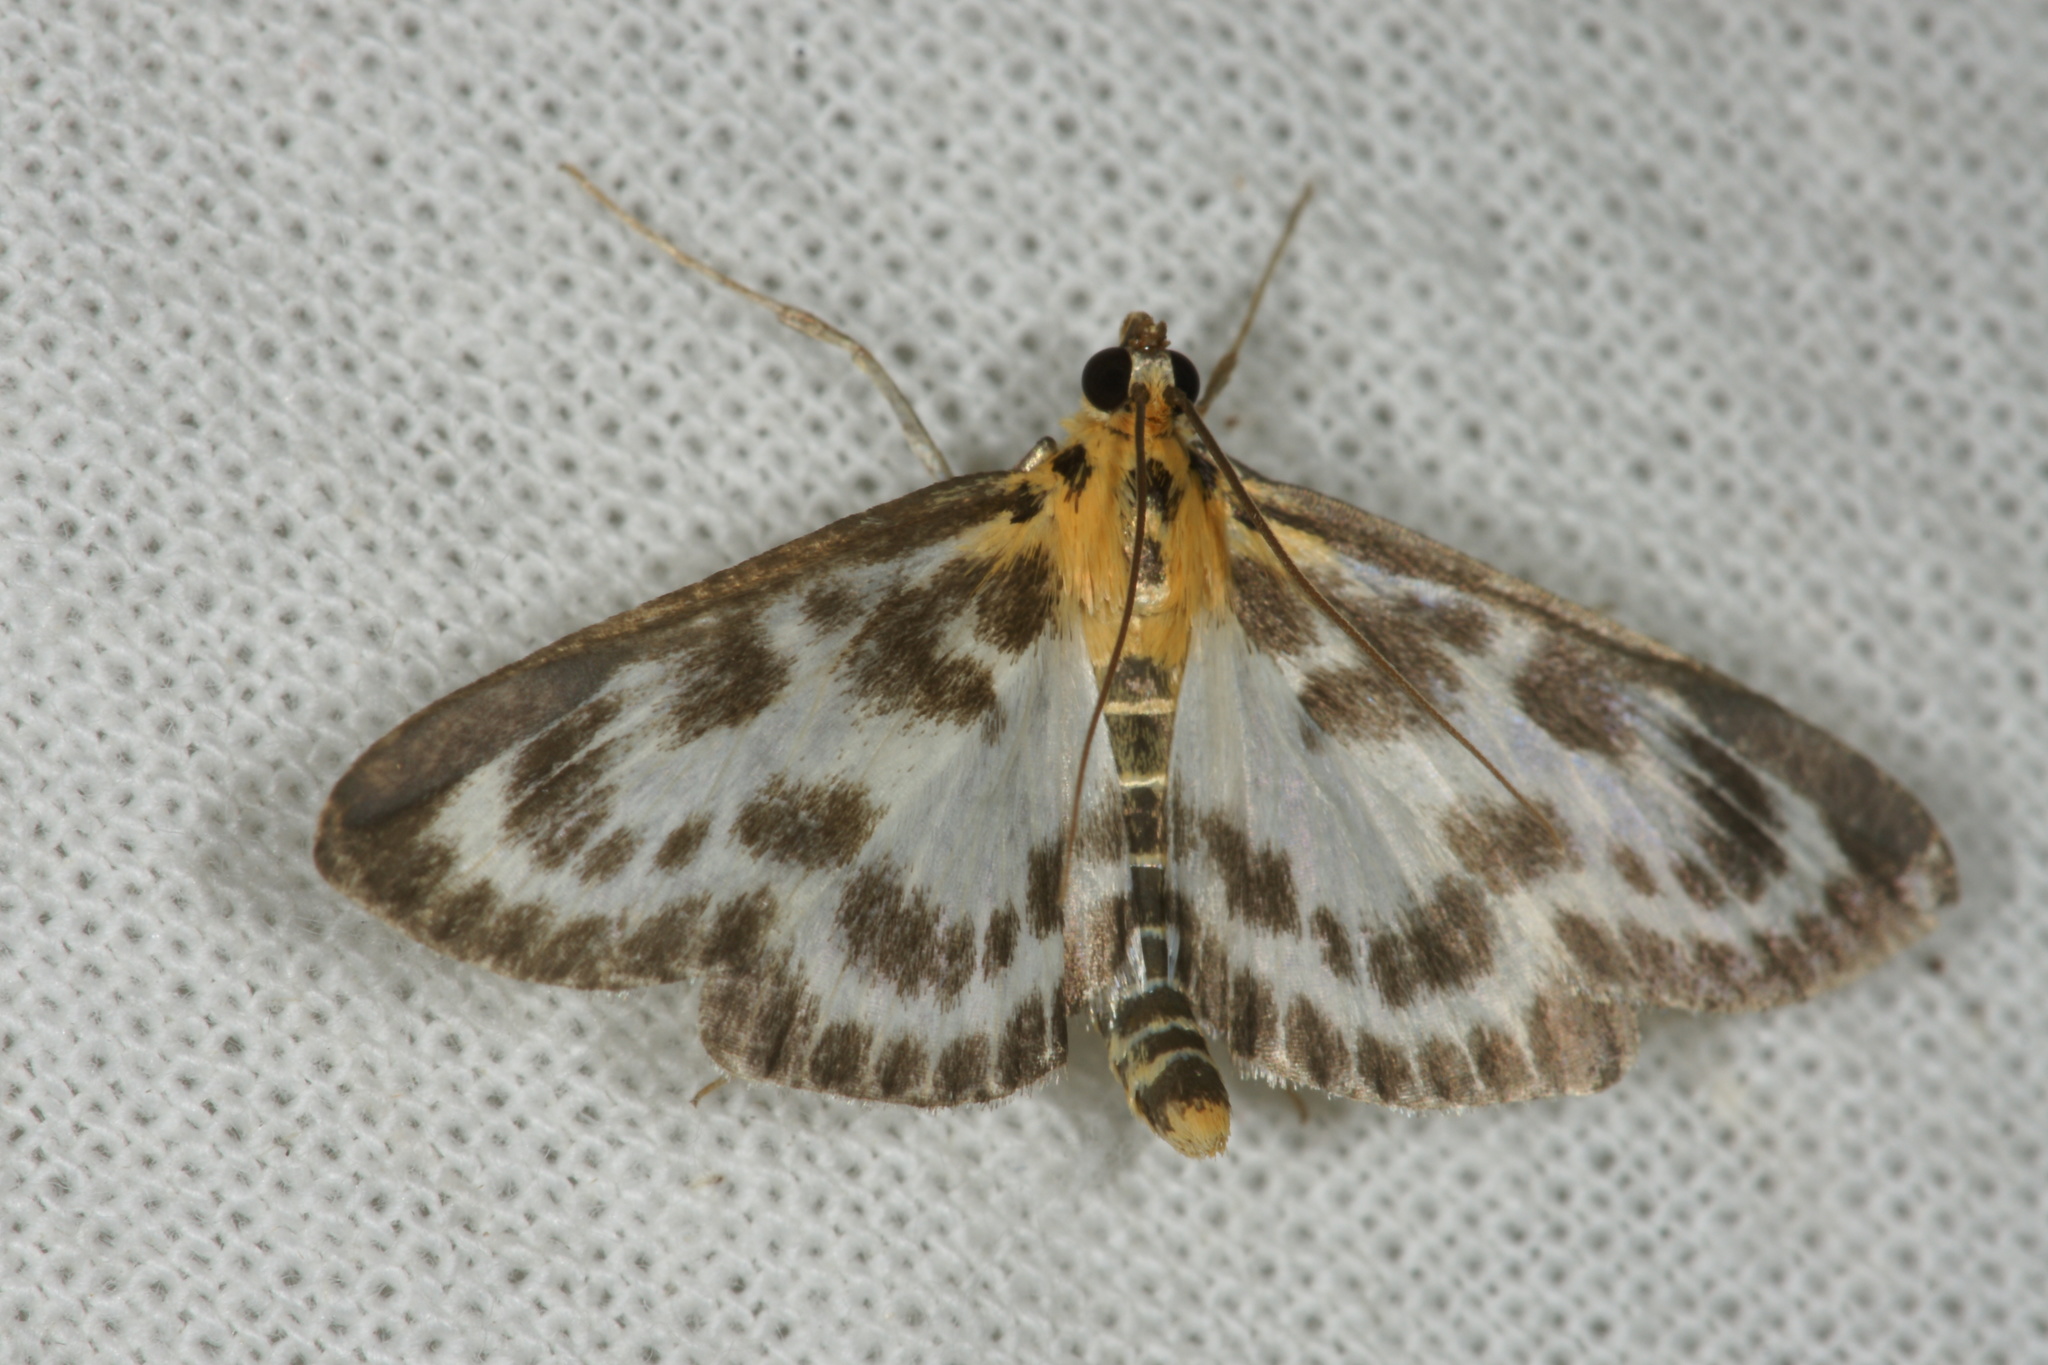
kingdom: Animalia
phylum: Arthropoda
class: Insecta
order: Lepidoptera
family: Crambidae
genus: Anania
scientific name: Anania hortulata
